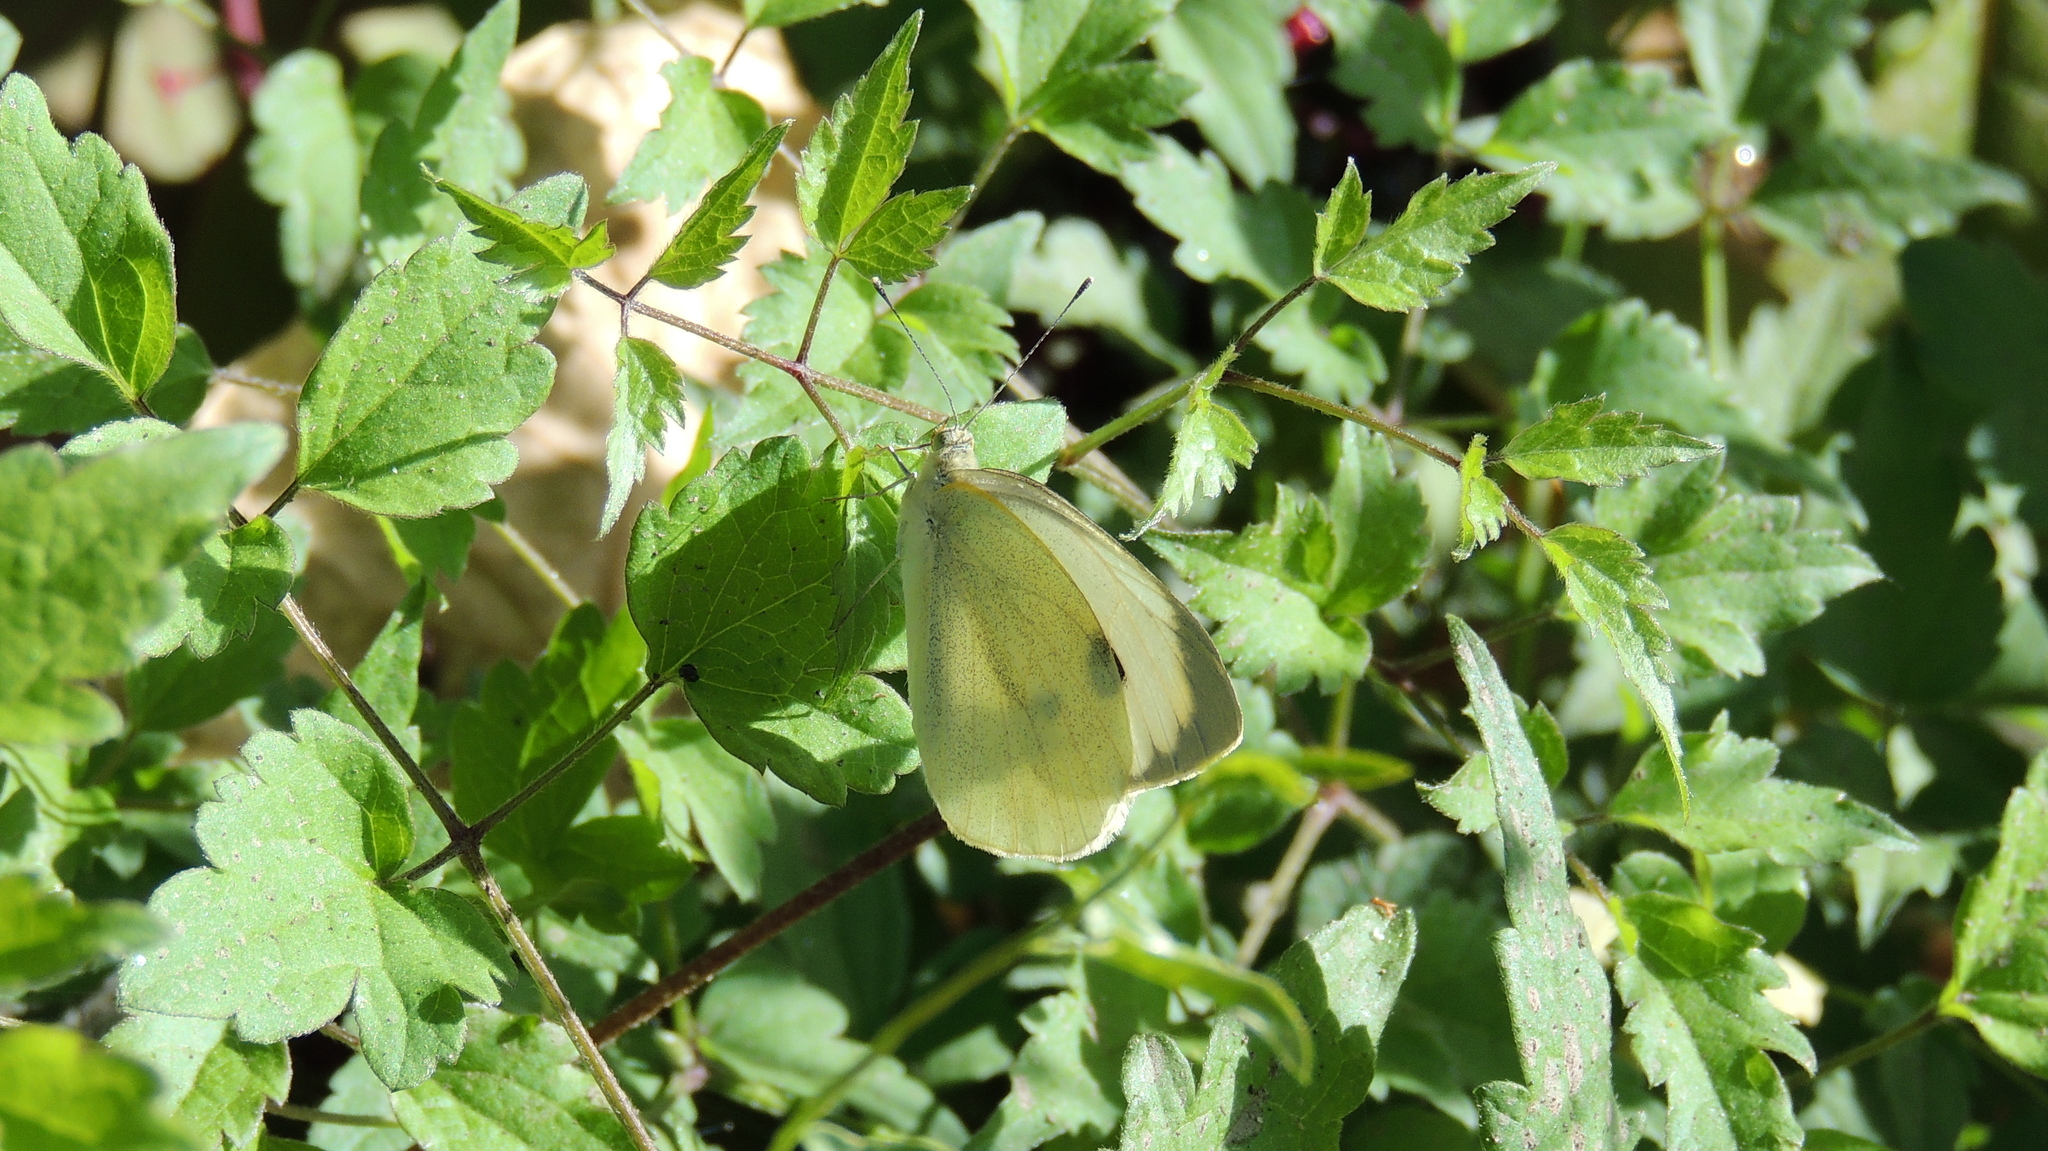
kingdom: Animalia
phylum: Arthropoda
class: Insecta
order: Lepidoptera
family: Pieridae
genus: Pieris
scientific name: Pieris brassicae
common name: Large white
